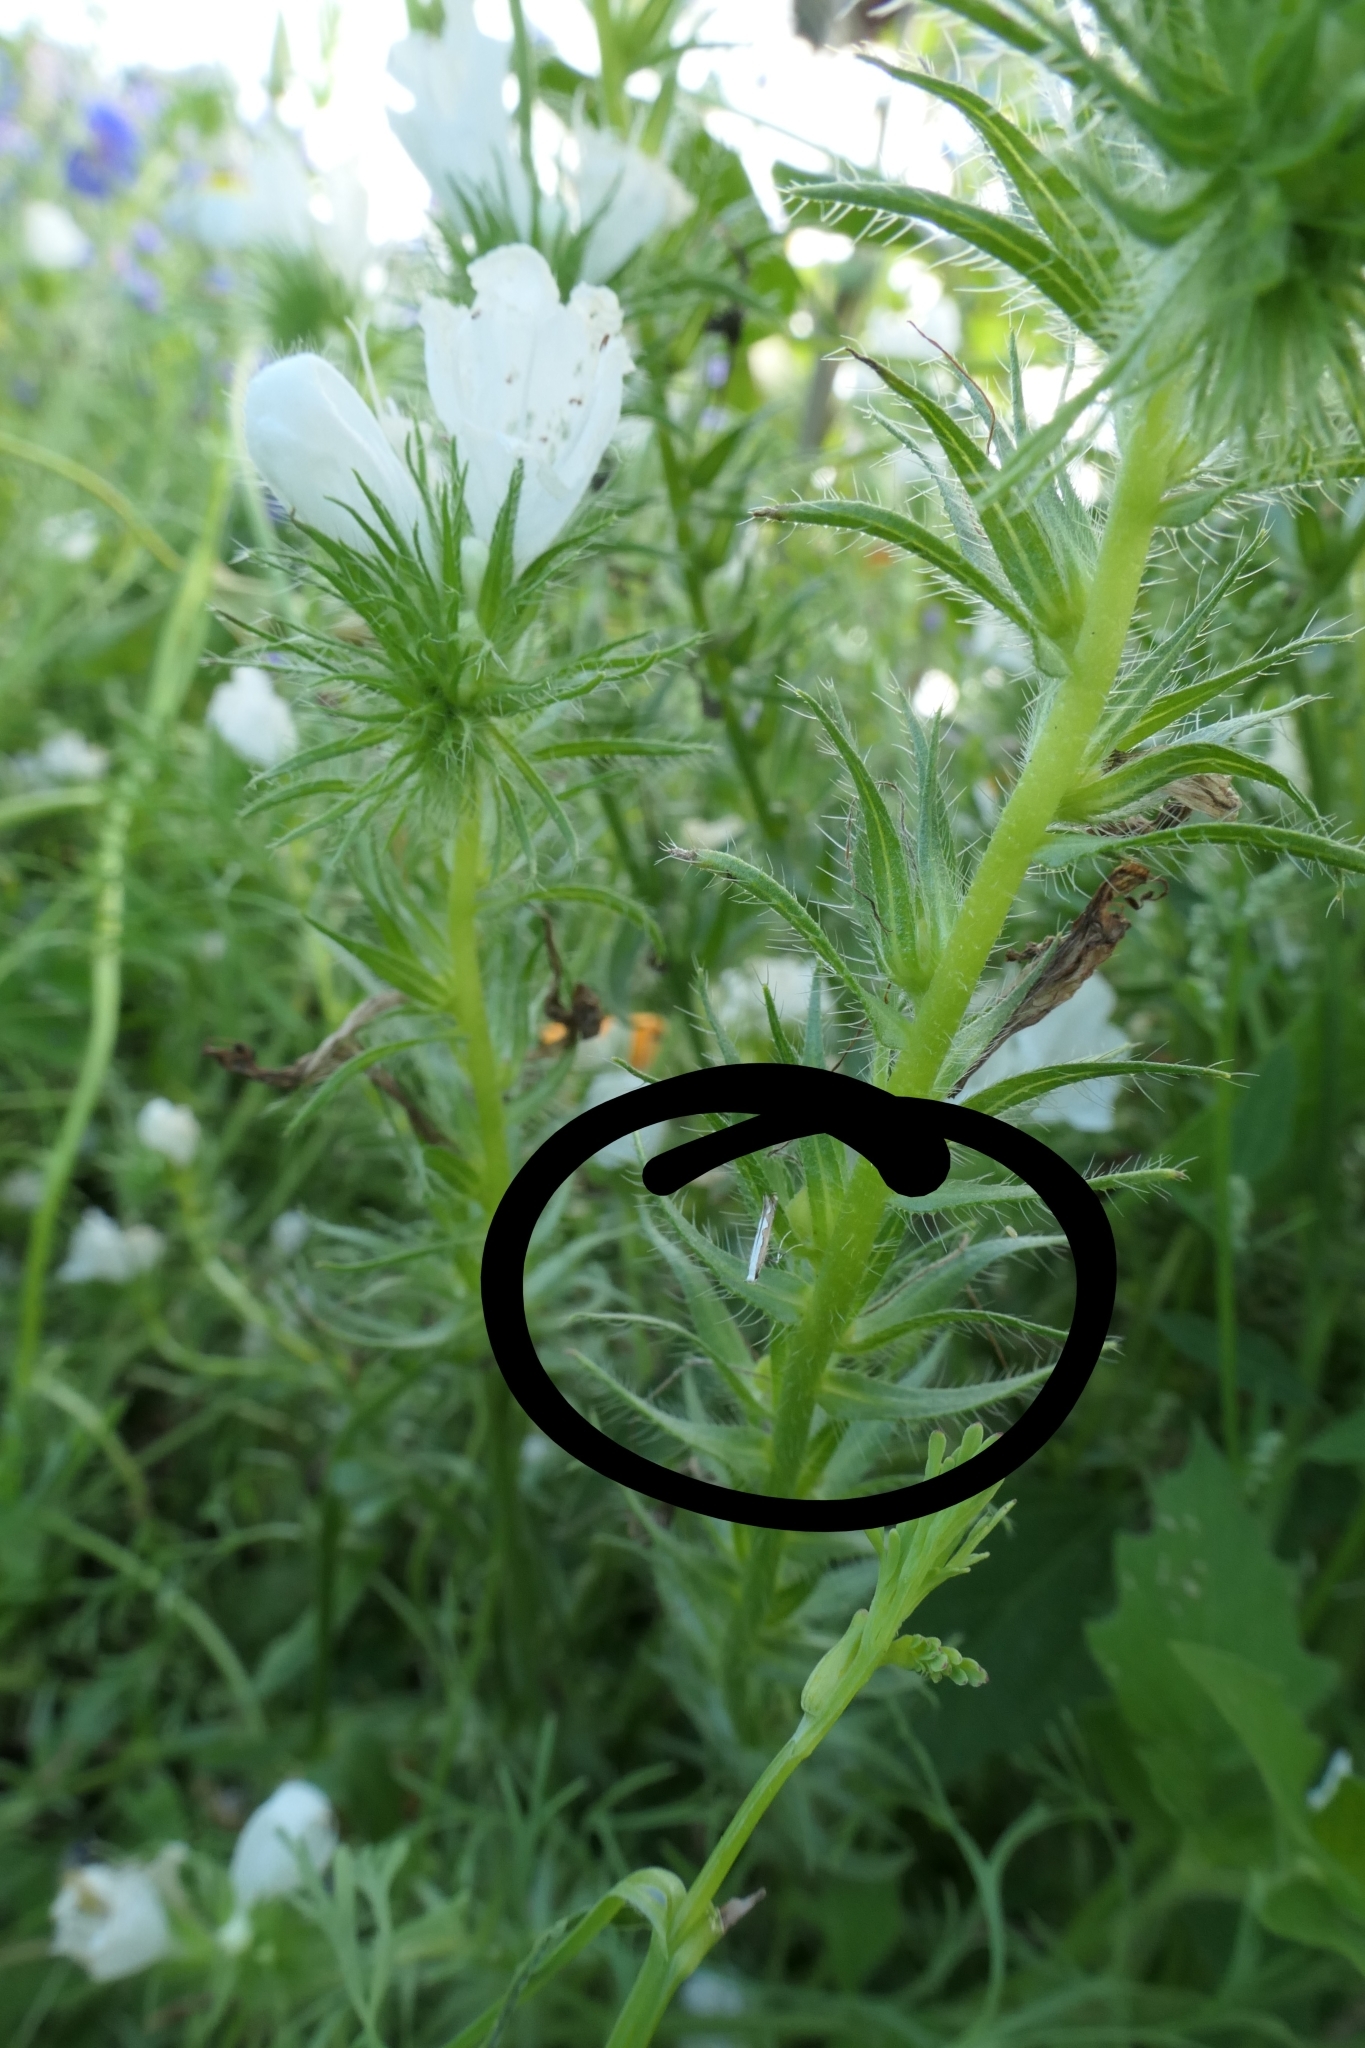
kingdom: Animalia
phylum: Arthropoda
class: Insecta
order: Lepidoptera
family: Gracillariidae
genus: Dialectica
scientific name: Dialectica scalariella
